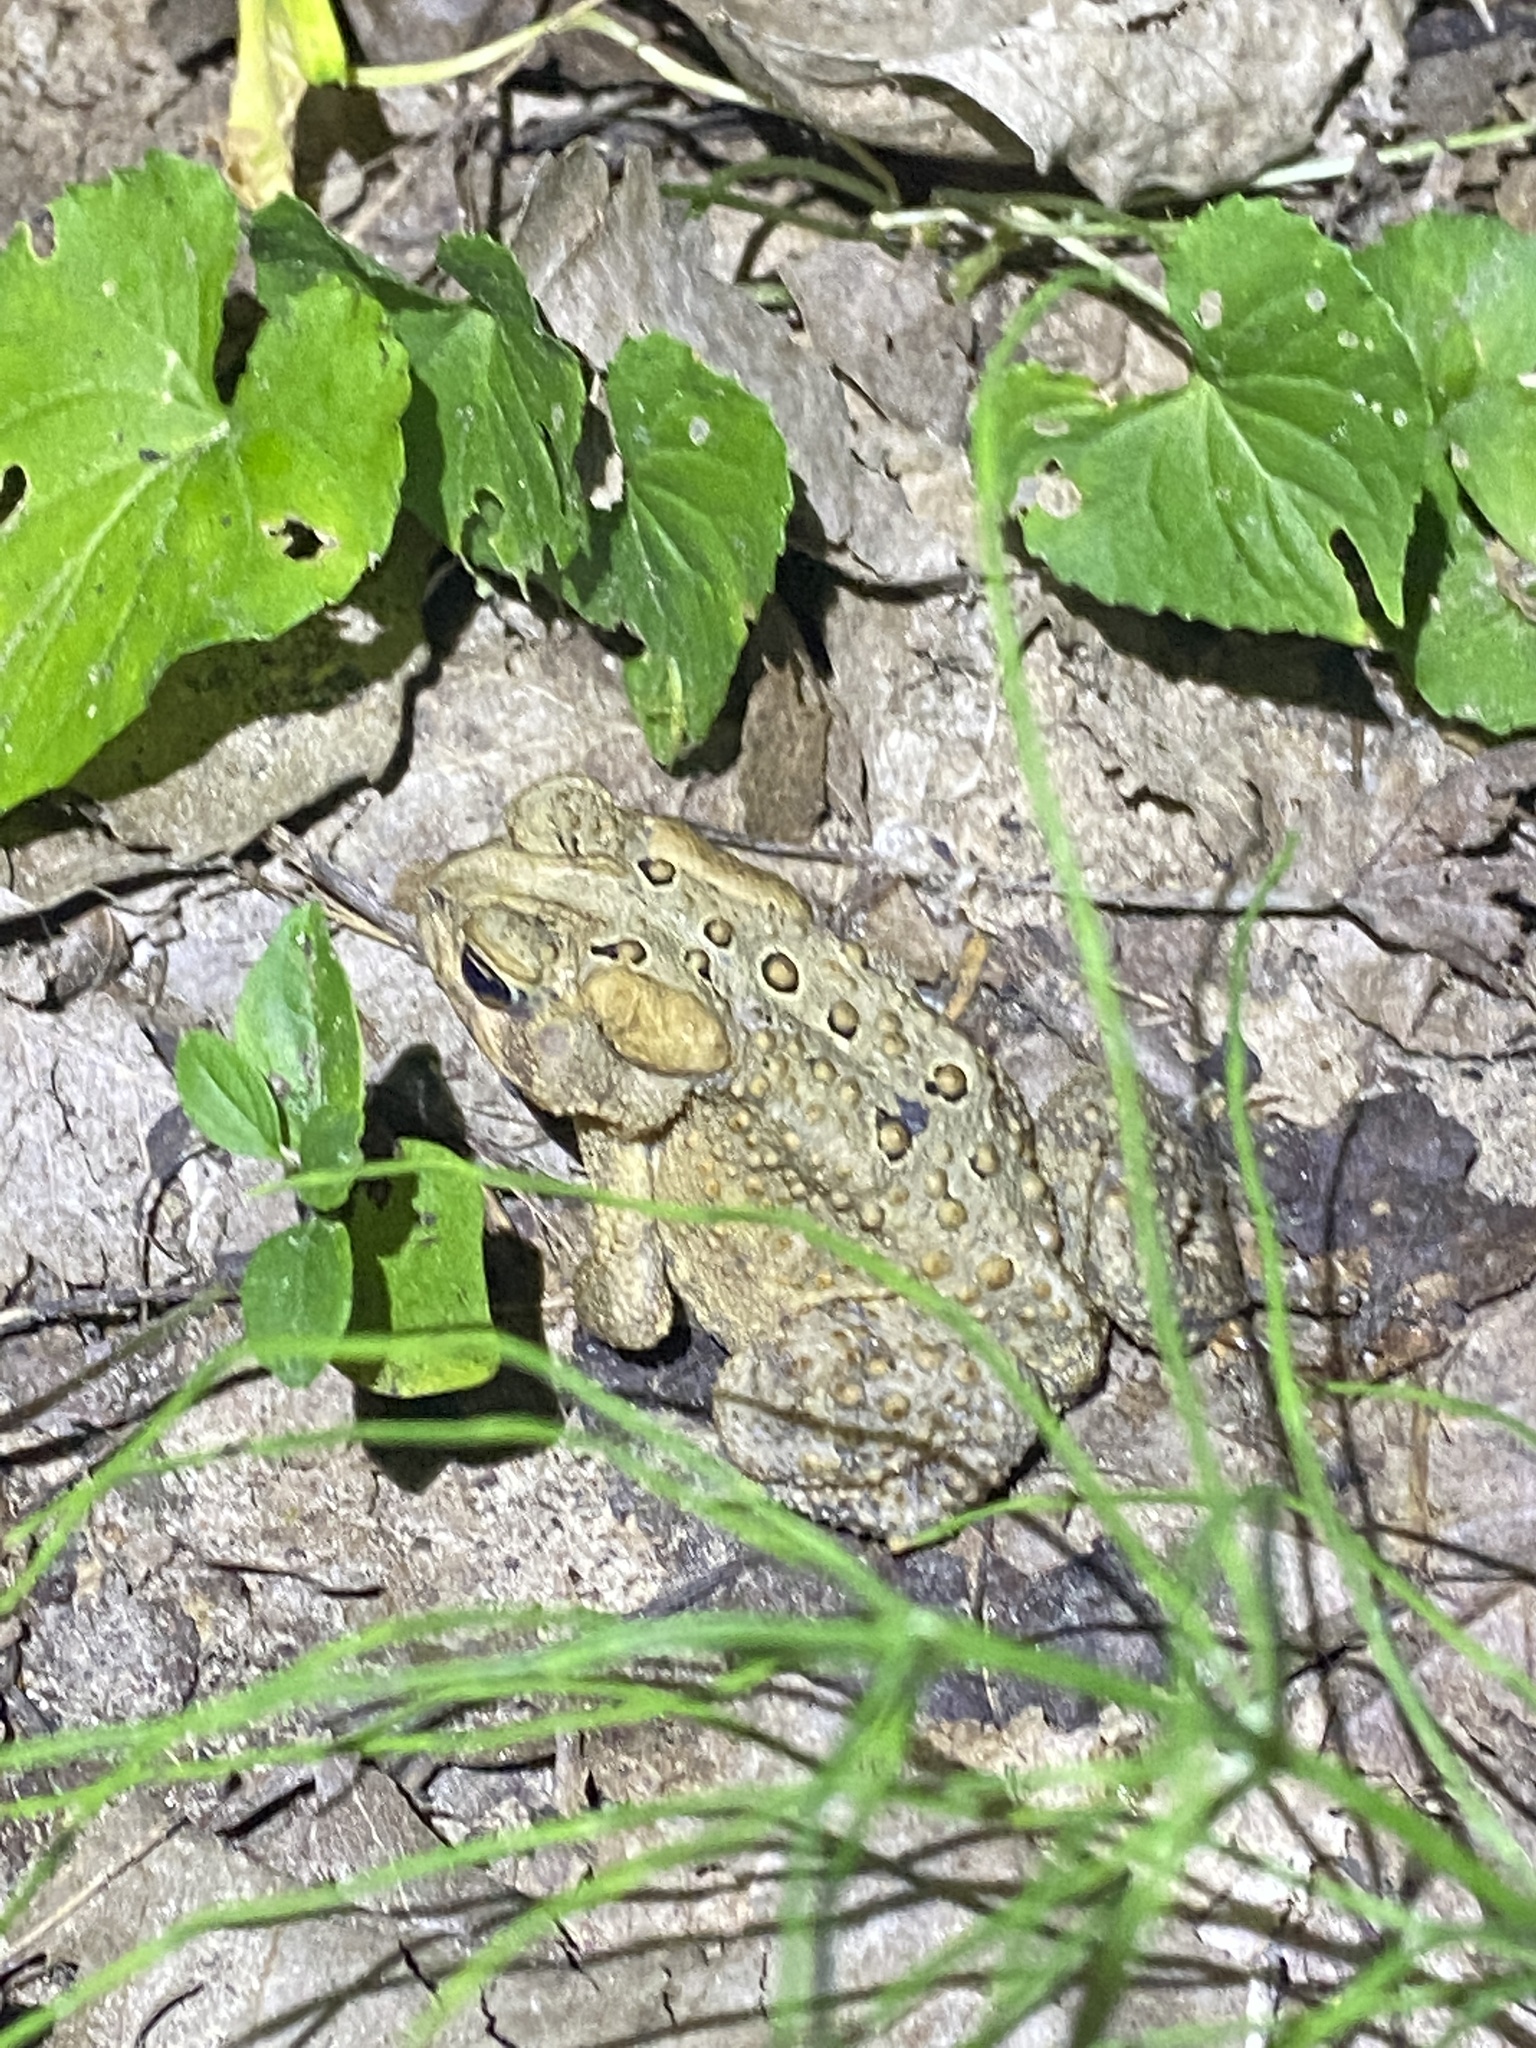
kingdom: Animalia
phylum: Chordata
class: Amphibia
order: Anura
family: Bufonidae
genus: Anaxyrus
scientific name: Anaxyrus americanus
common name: American toad
